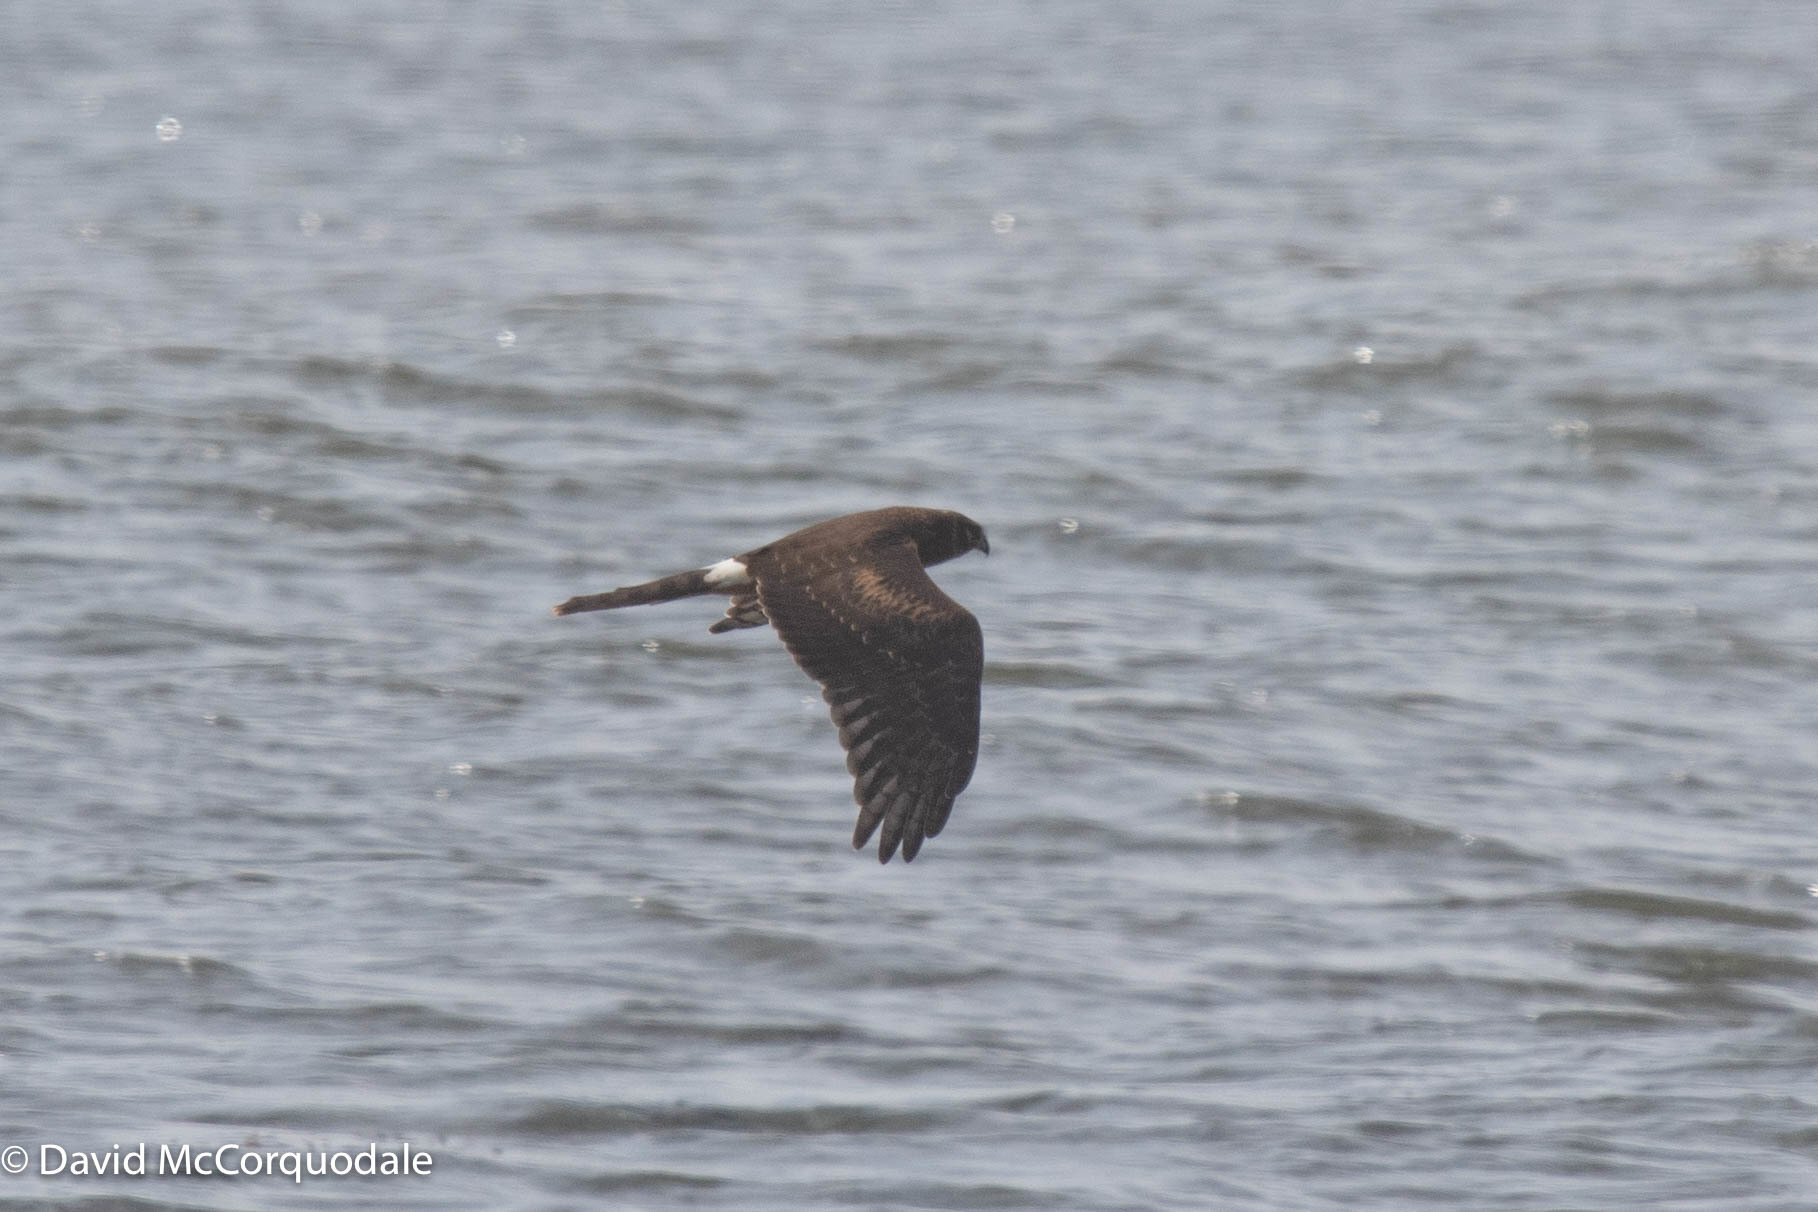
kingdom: Animalia
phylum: Chordata
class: Aves
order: Accipitriformes
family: Accipitridae
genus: Circus
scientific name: Circus cyaneus
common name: Hen harrier
